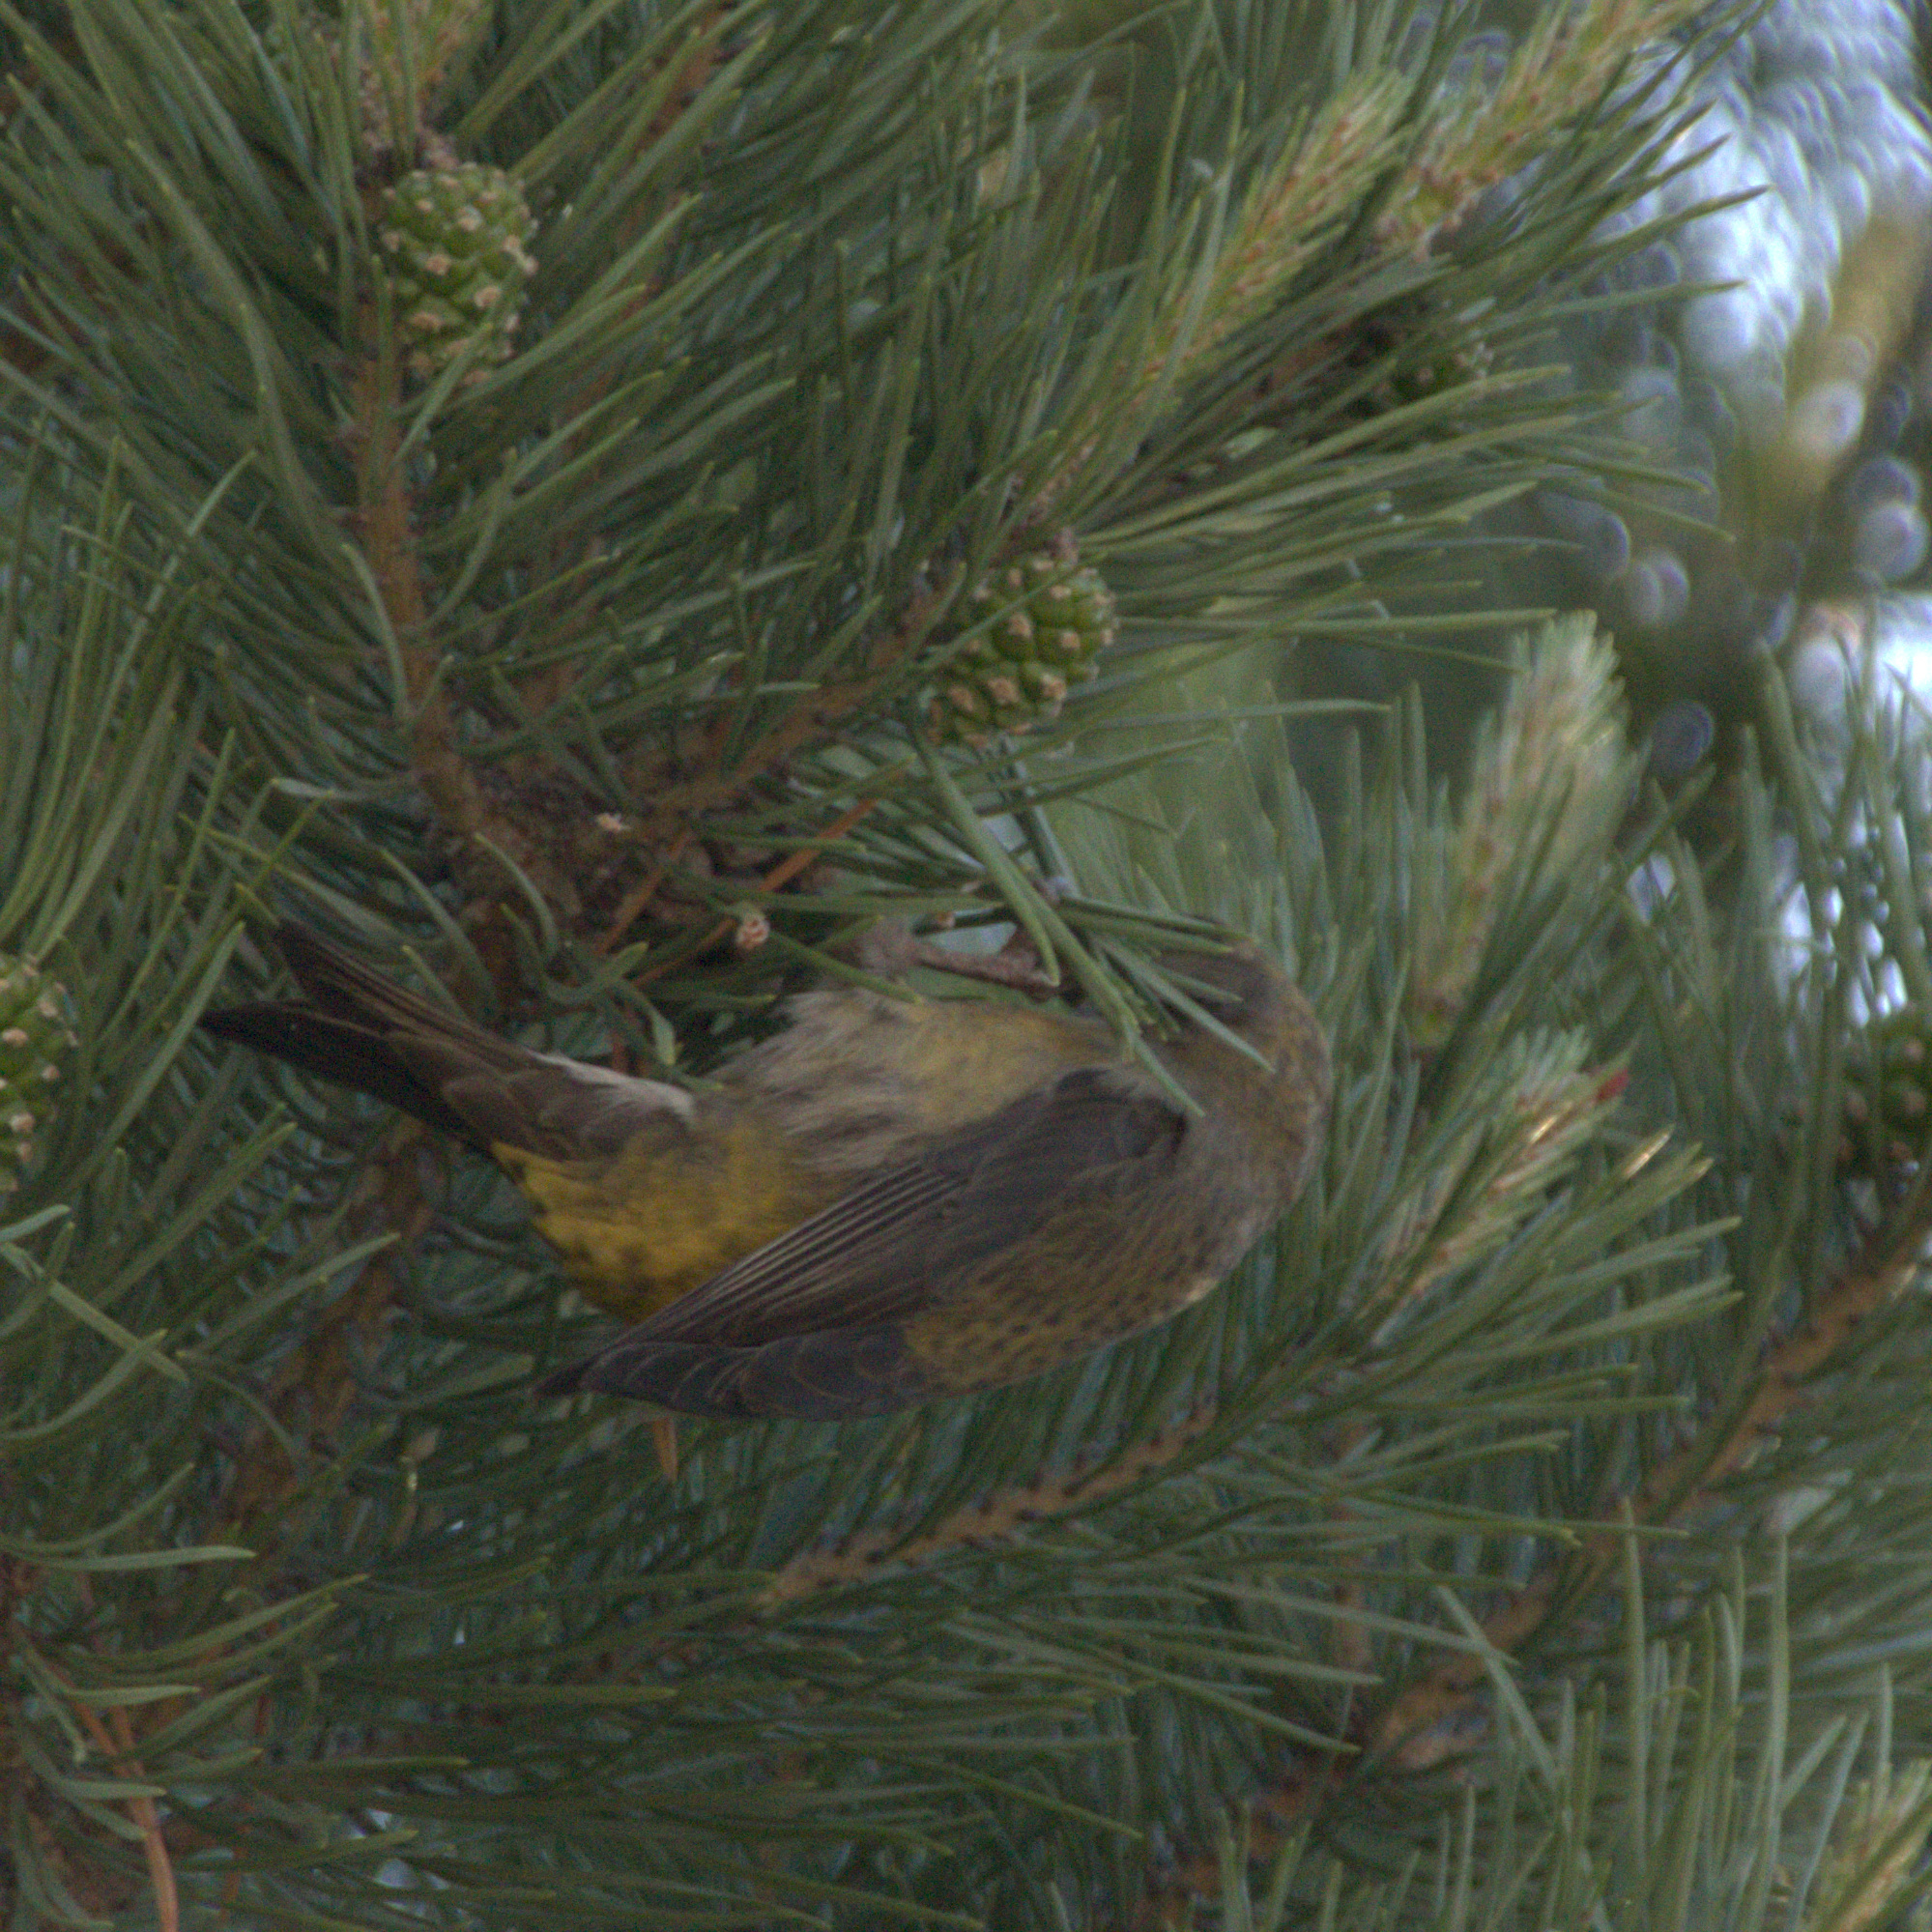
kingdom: Animalia
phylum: Chordata
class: Aves
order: Passeriformes
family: Fringillidae
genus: Loxia
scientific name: Loxia curvirostra
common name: Red crossbill
